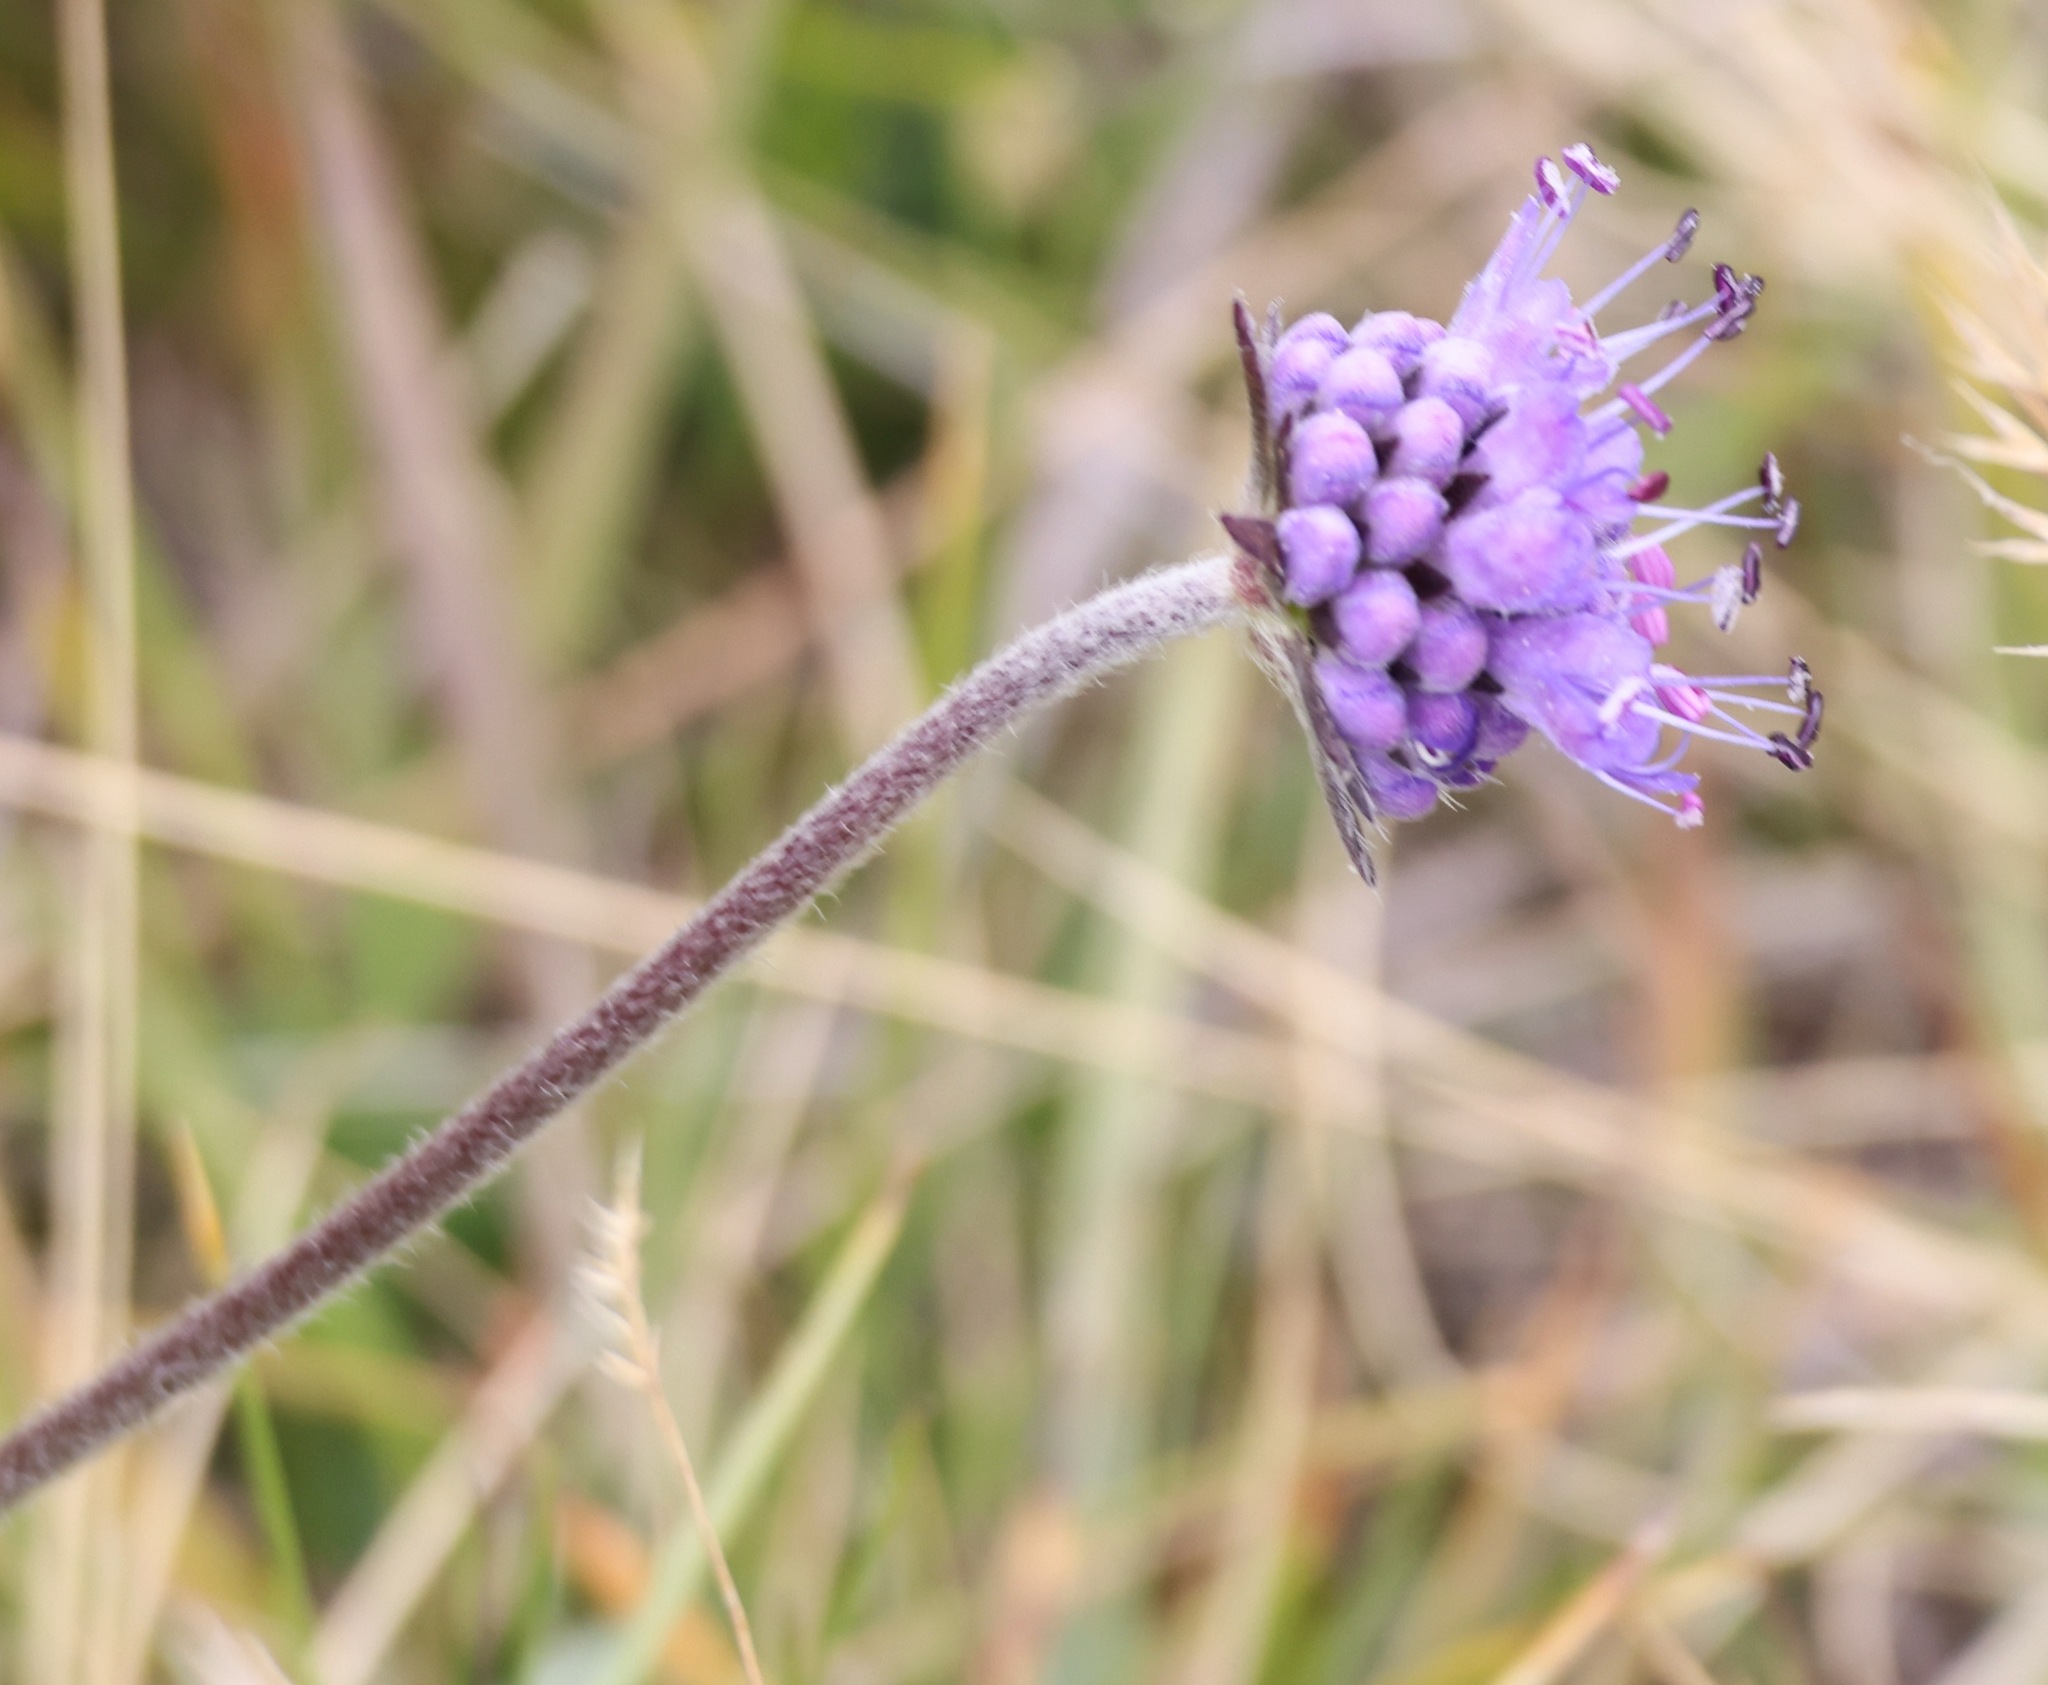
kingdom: Plantae
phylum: Tracheophyta
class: Magnoliopsida
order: Dipsacales
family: Caprifoliaceae
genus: Succisa
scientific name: Succisa pratensis
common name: Devil's-bit
